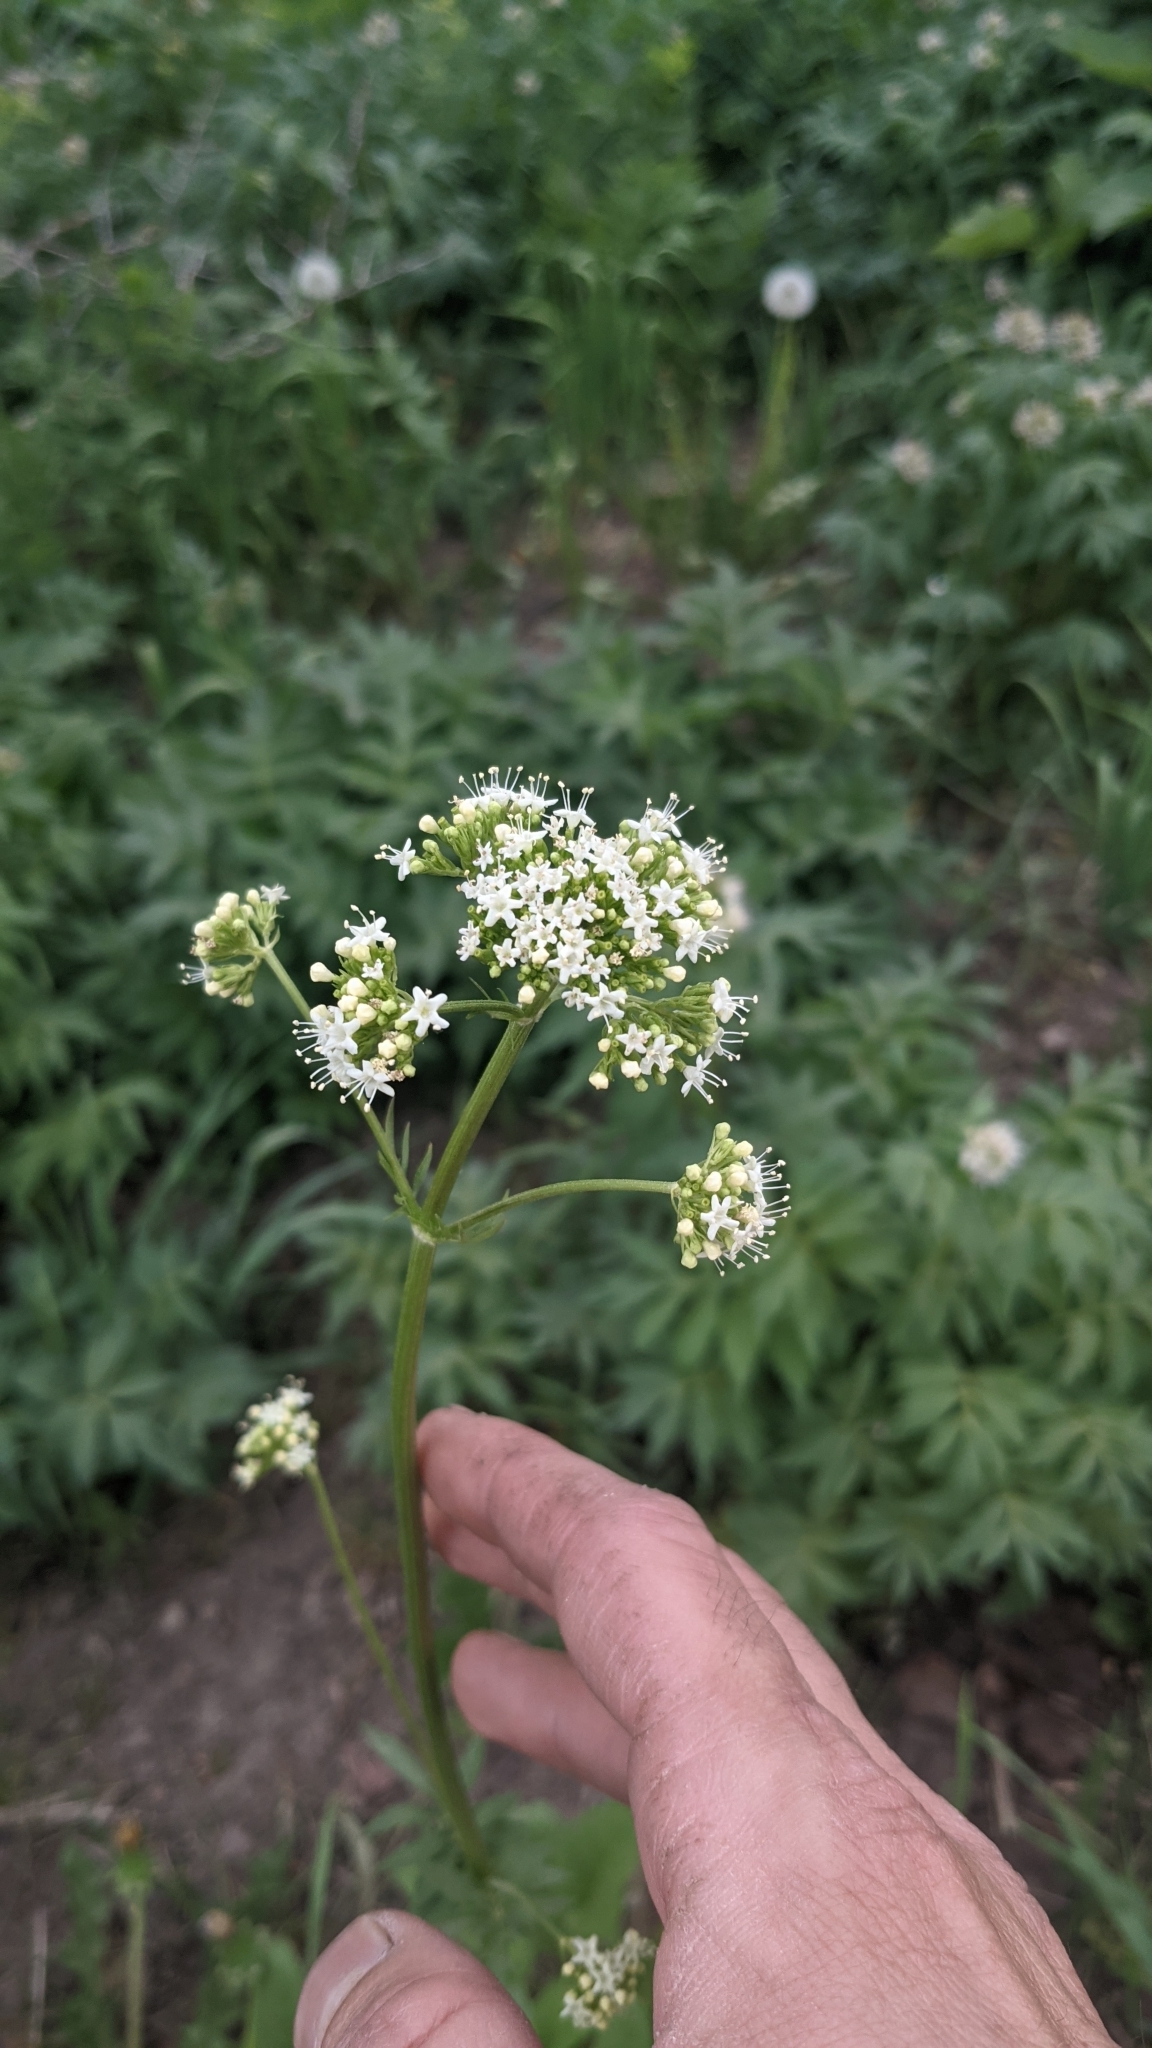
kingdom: Plantae
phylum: Tracheophyta
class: Magnoliopsida
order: Dipsacales
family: Caprifoliaceae
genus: Valeriana
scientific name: Valeriana occidentalis
